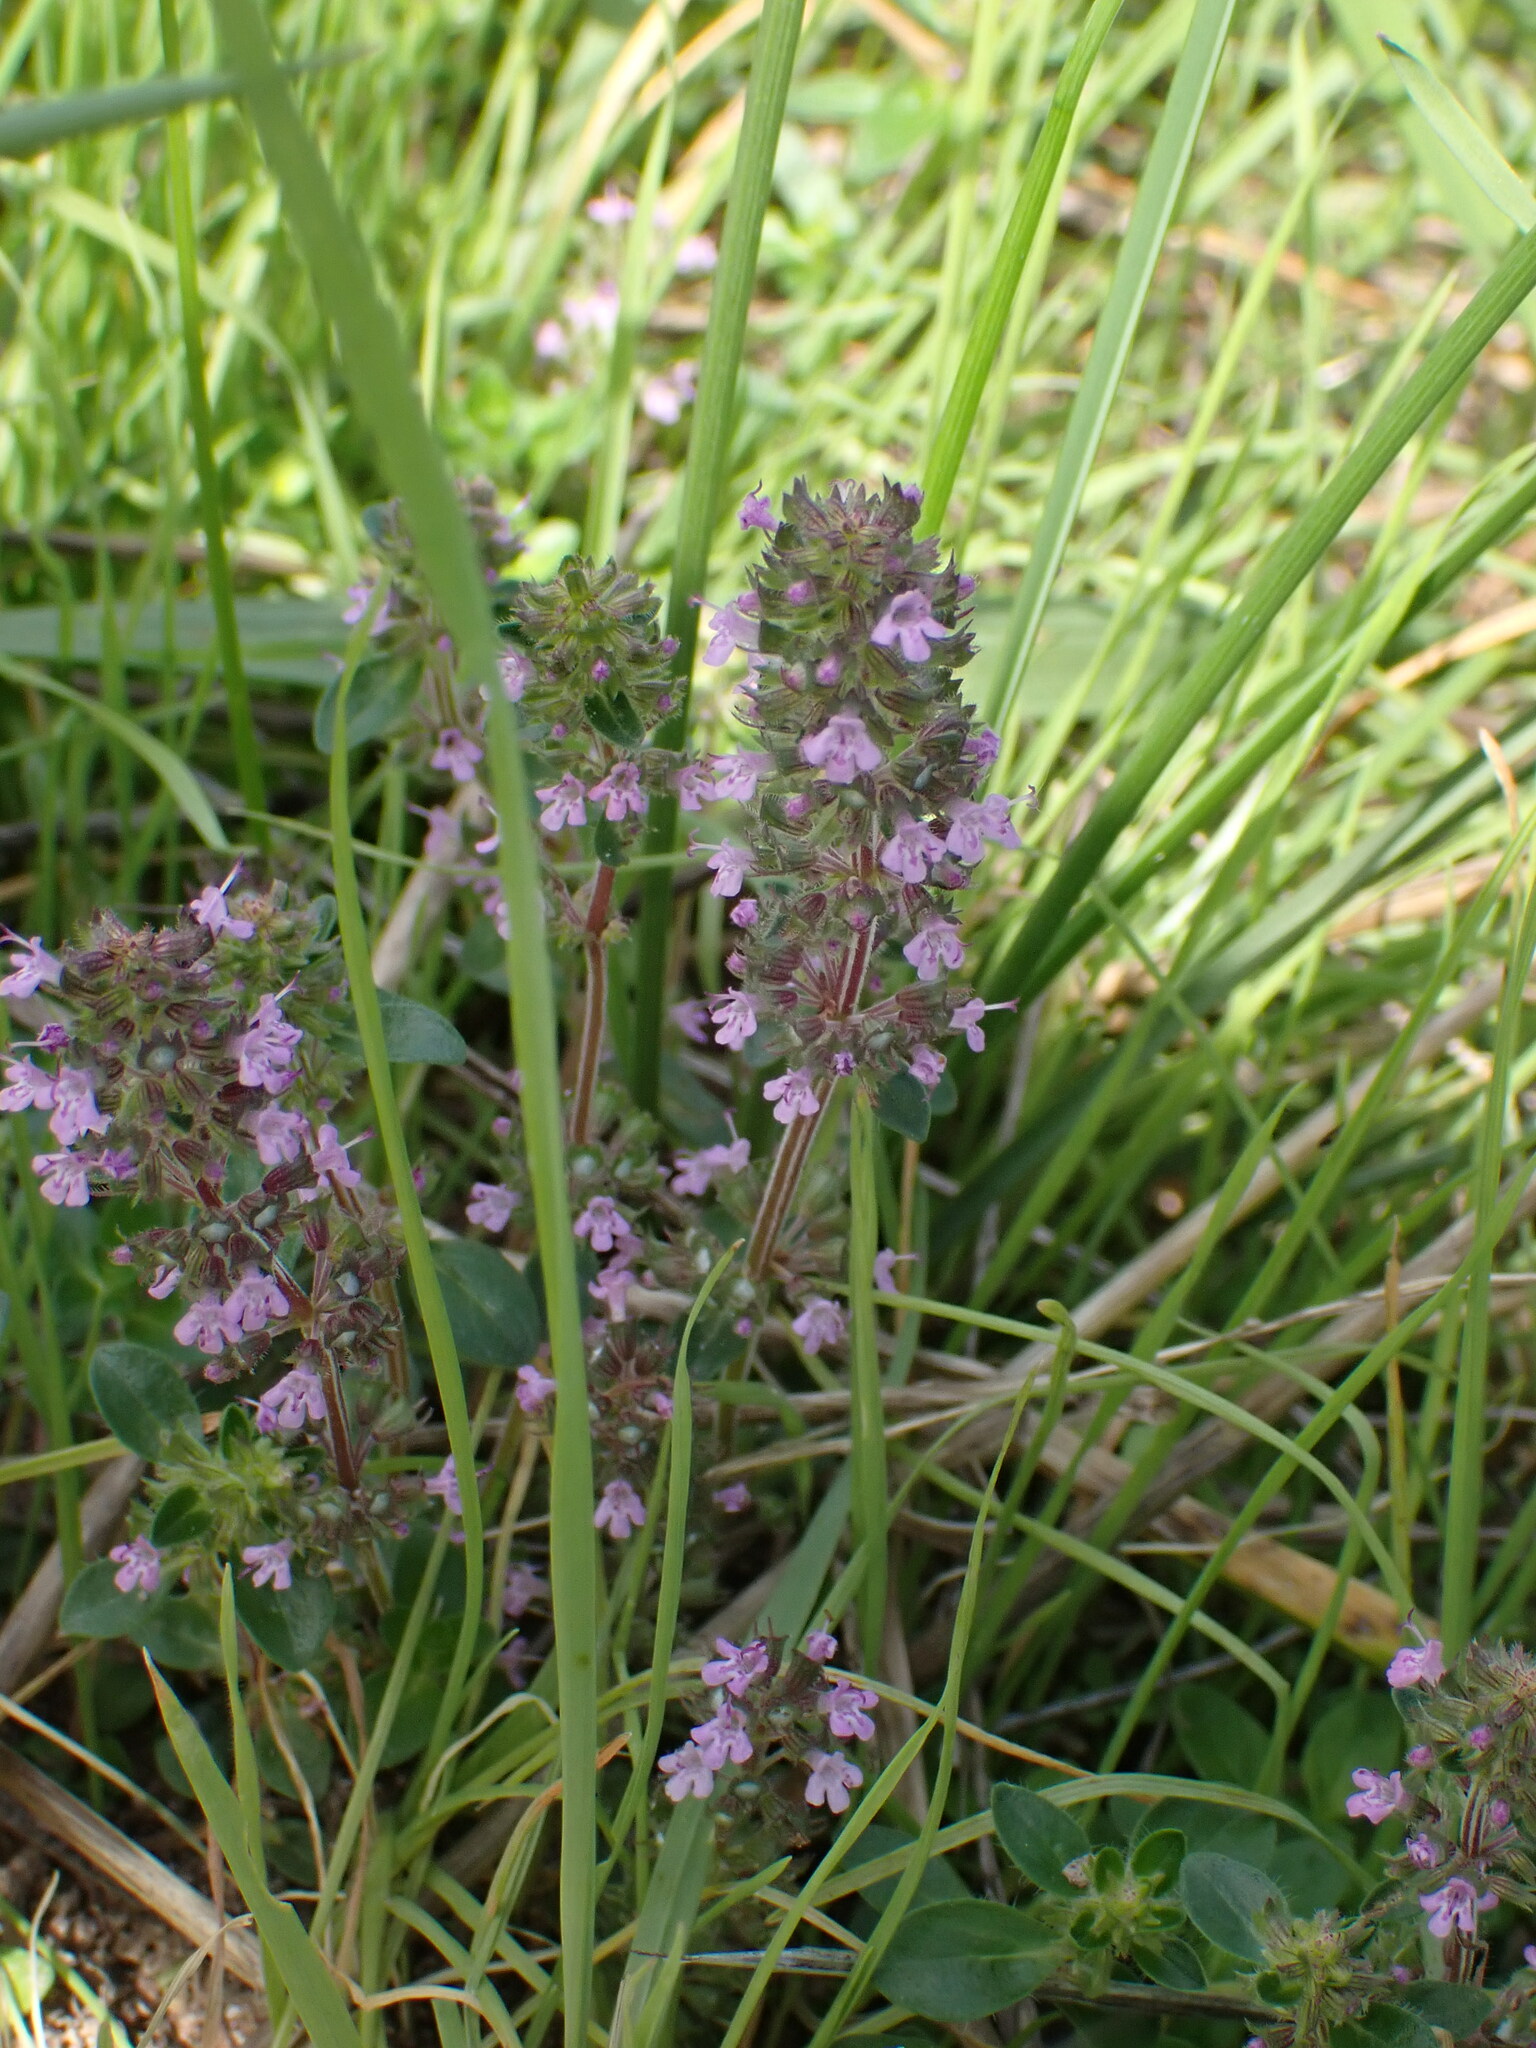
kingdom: Plantae
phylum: Tracheophyta
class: Magnoliopsida
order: Lamiales
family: Lamiaceae
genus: Thymus
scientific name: Thymus pulegioides
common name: Large thyme
